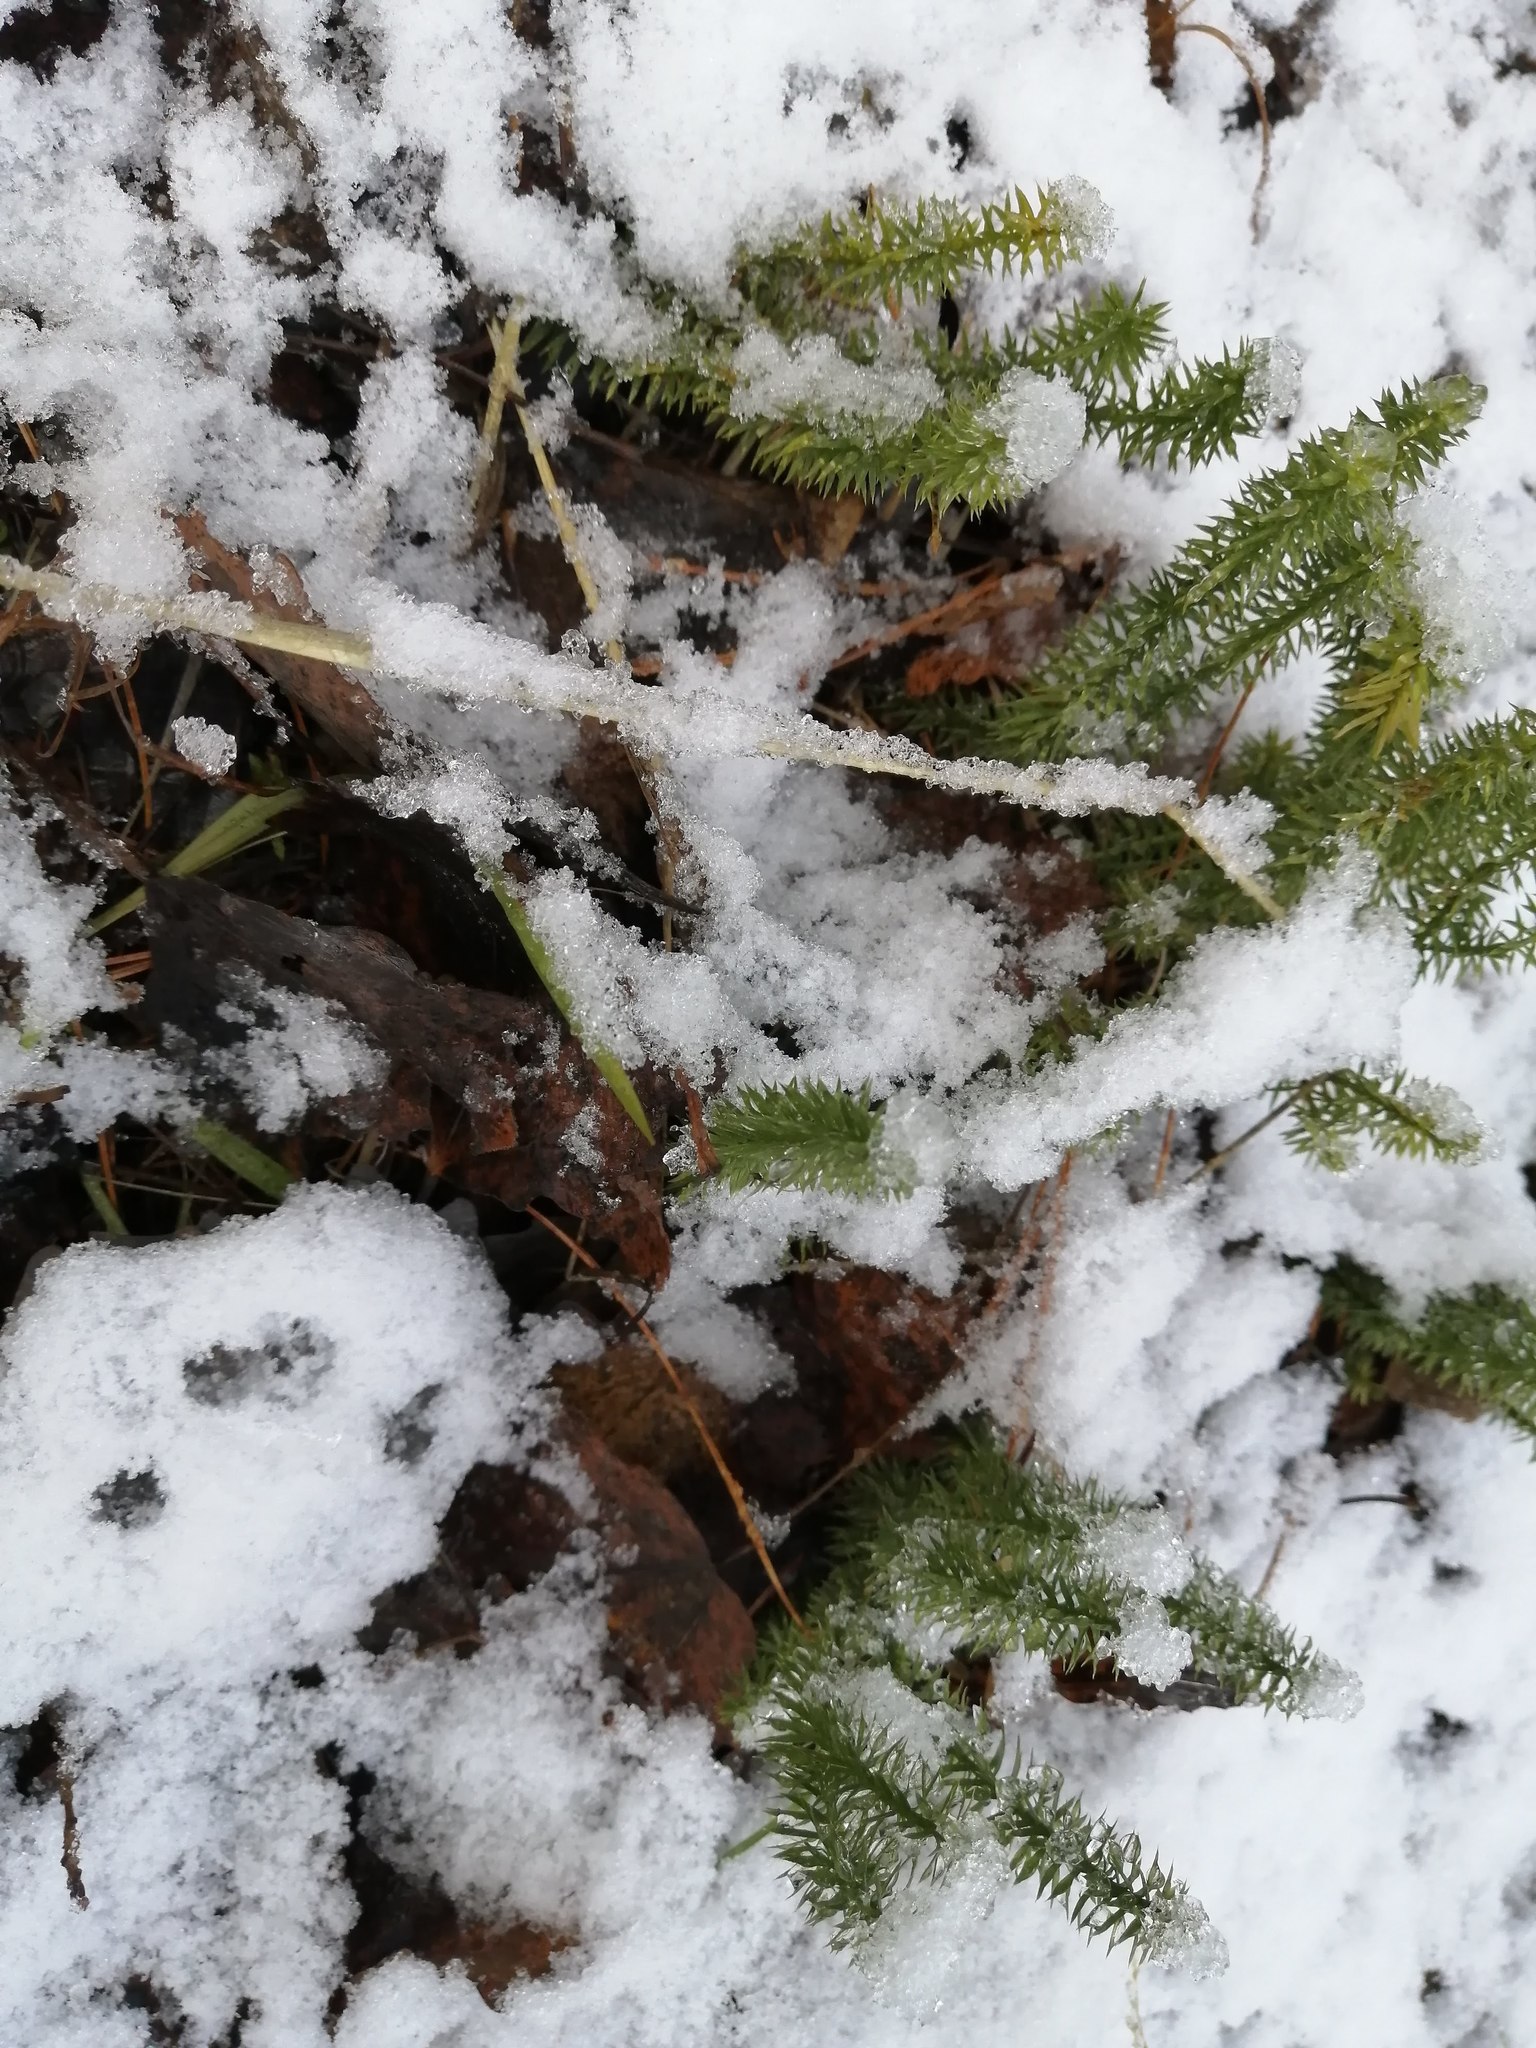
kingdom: Plantae
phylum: Tracheophyta
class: Lycopodiopsida
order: Lycopodiales
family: Lycopodiaceae
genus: Spinulum
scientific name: Spinulum annotinum
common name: Interrupted club-moss
